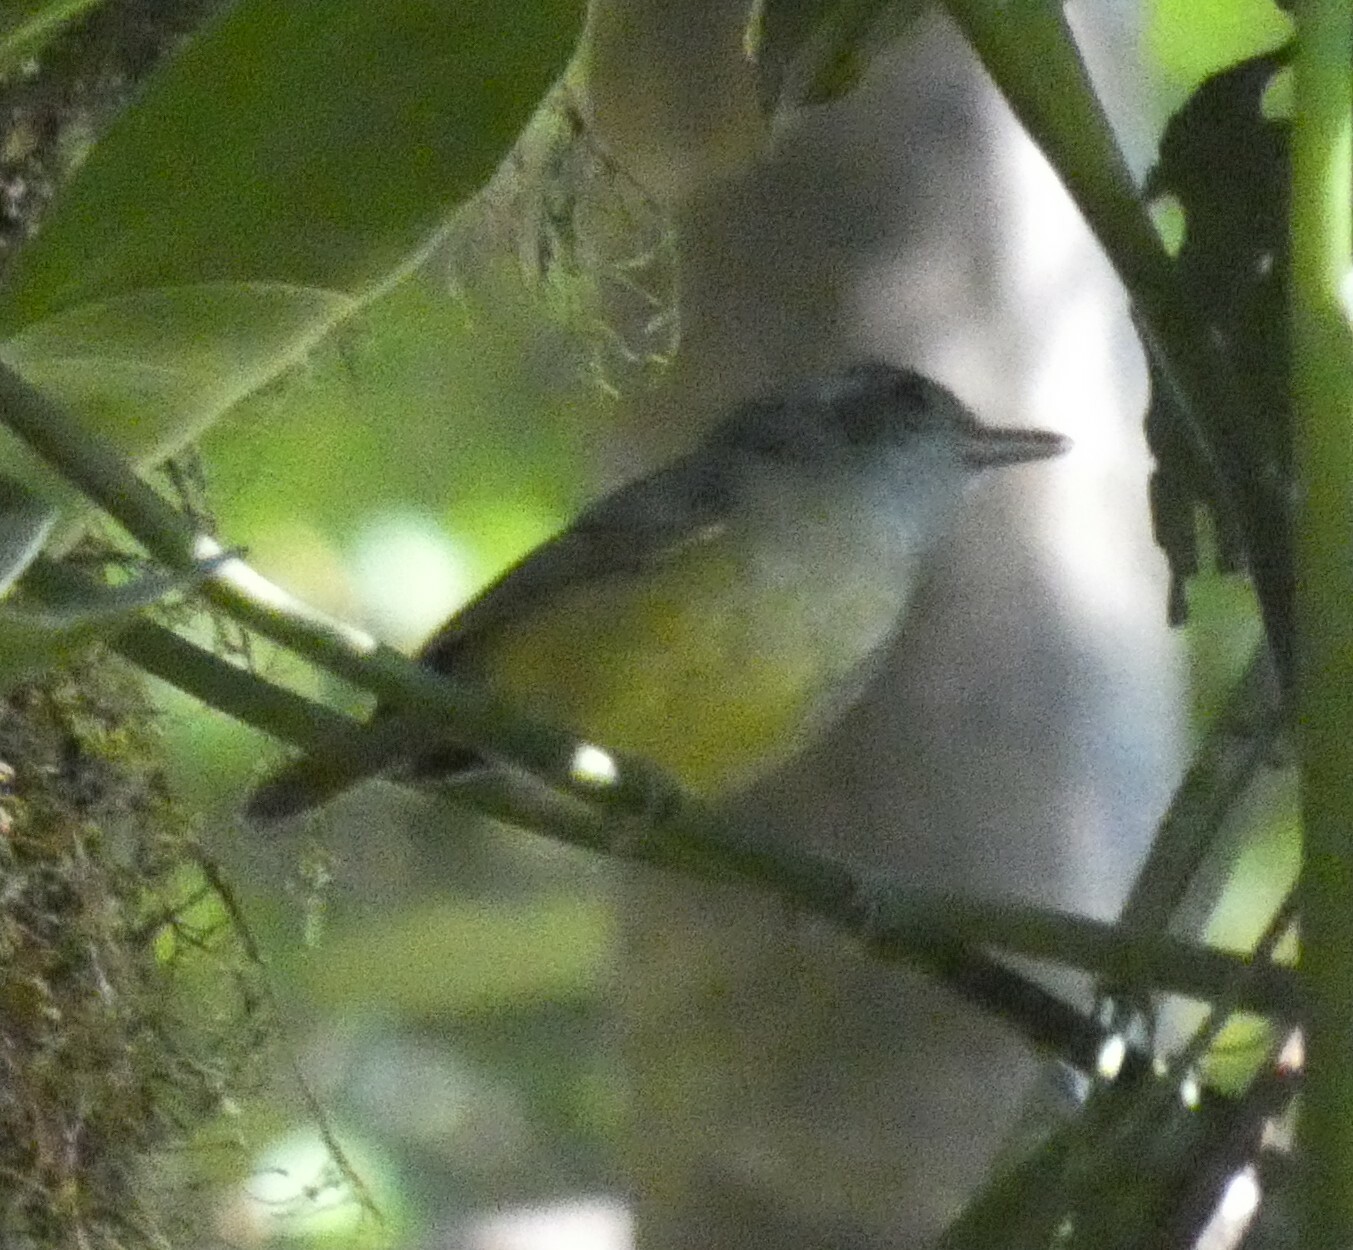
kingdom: Animalia
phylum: Chordata
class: Aves
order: Passeriformes
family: Thamnophilidae
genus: Dysithamnus
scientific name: Dysithamnus mentalis
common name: Plain antvireo
